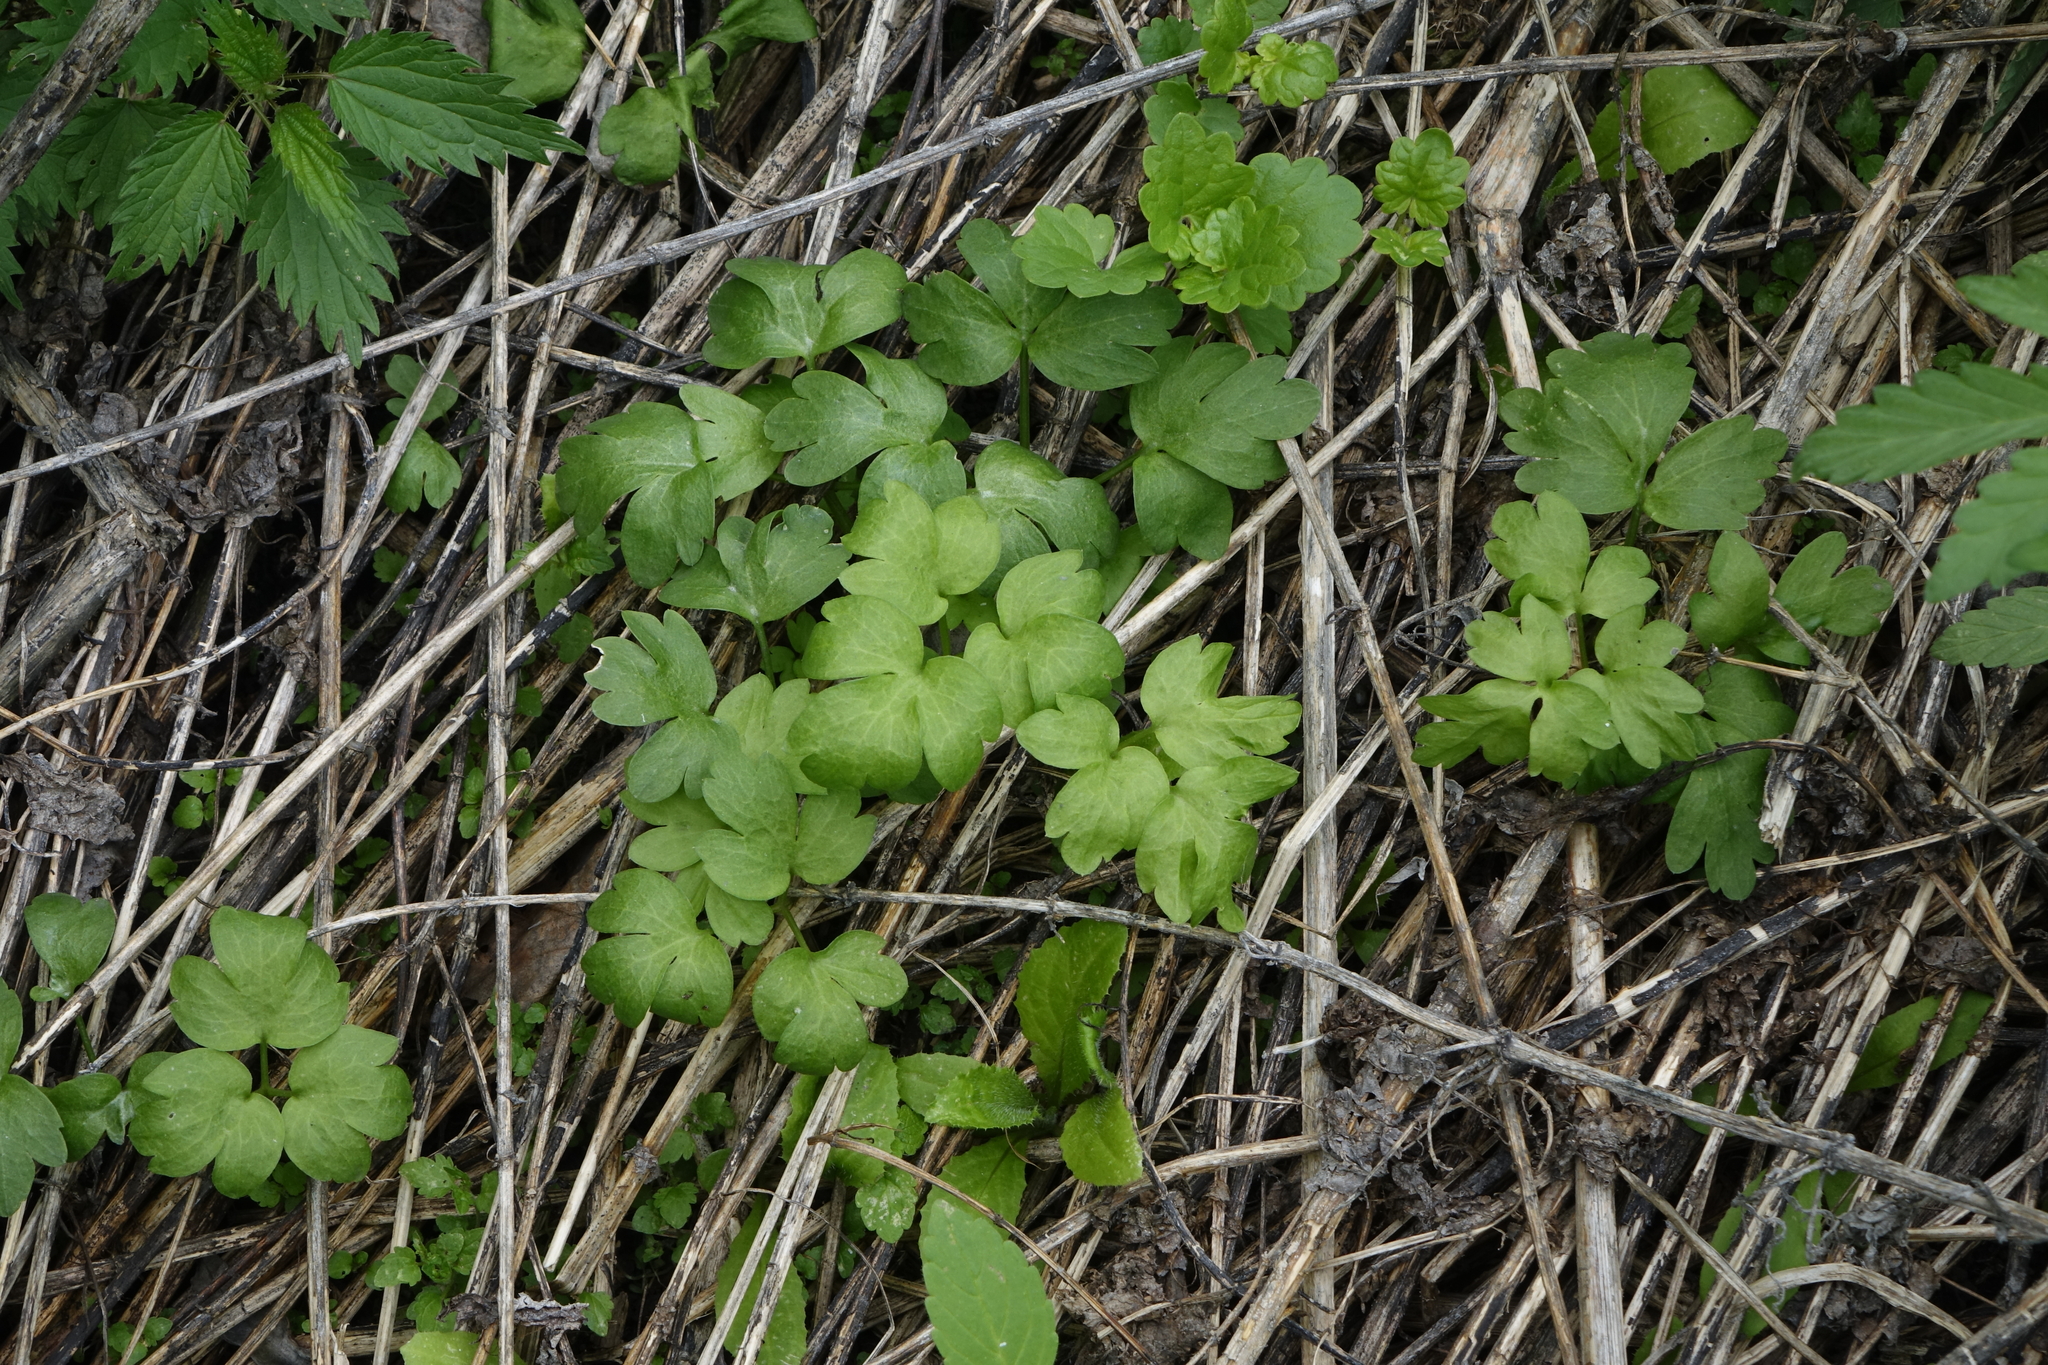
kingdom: Plantae
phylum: Tracheophyta
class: Magnoliopsida
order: Dipsacales
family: Viburnaceae
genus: Adoxa
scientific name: Adoxa moschatellina
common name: Moschatel
